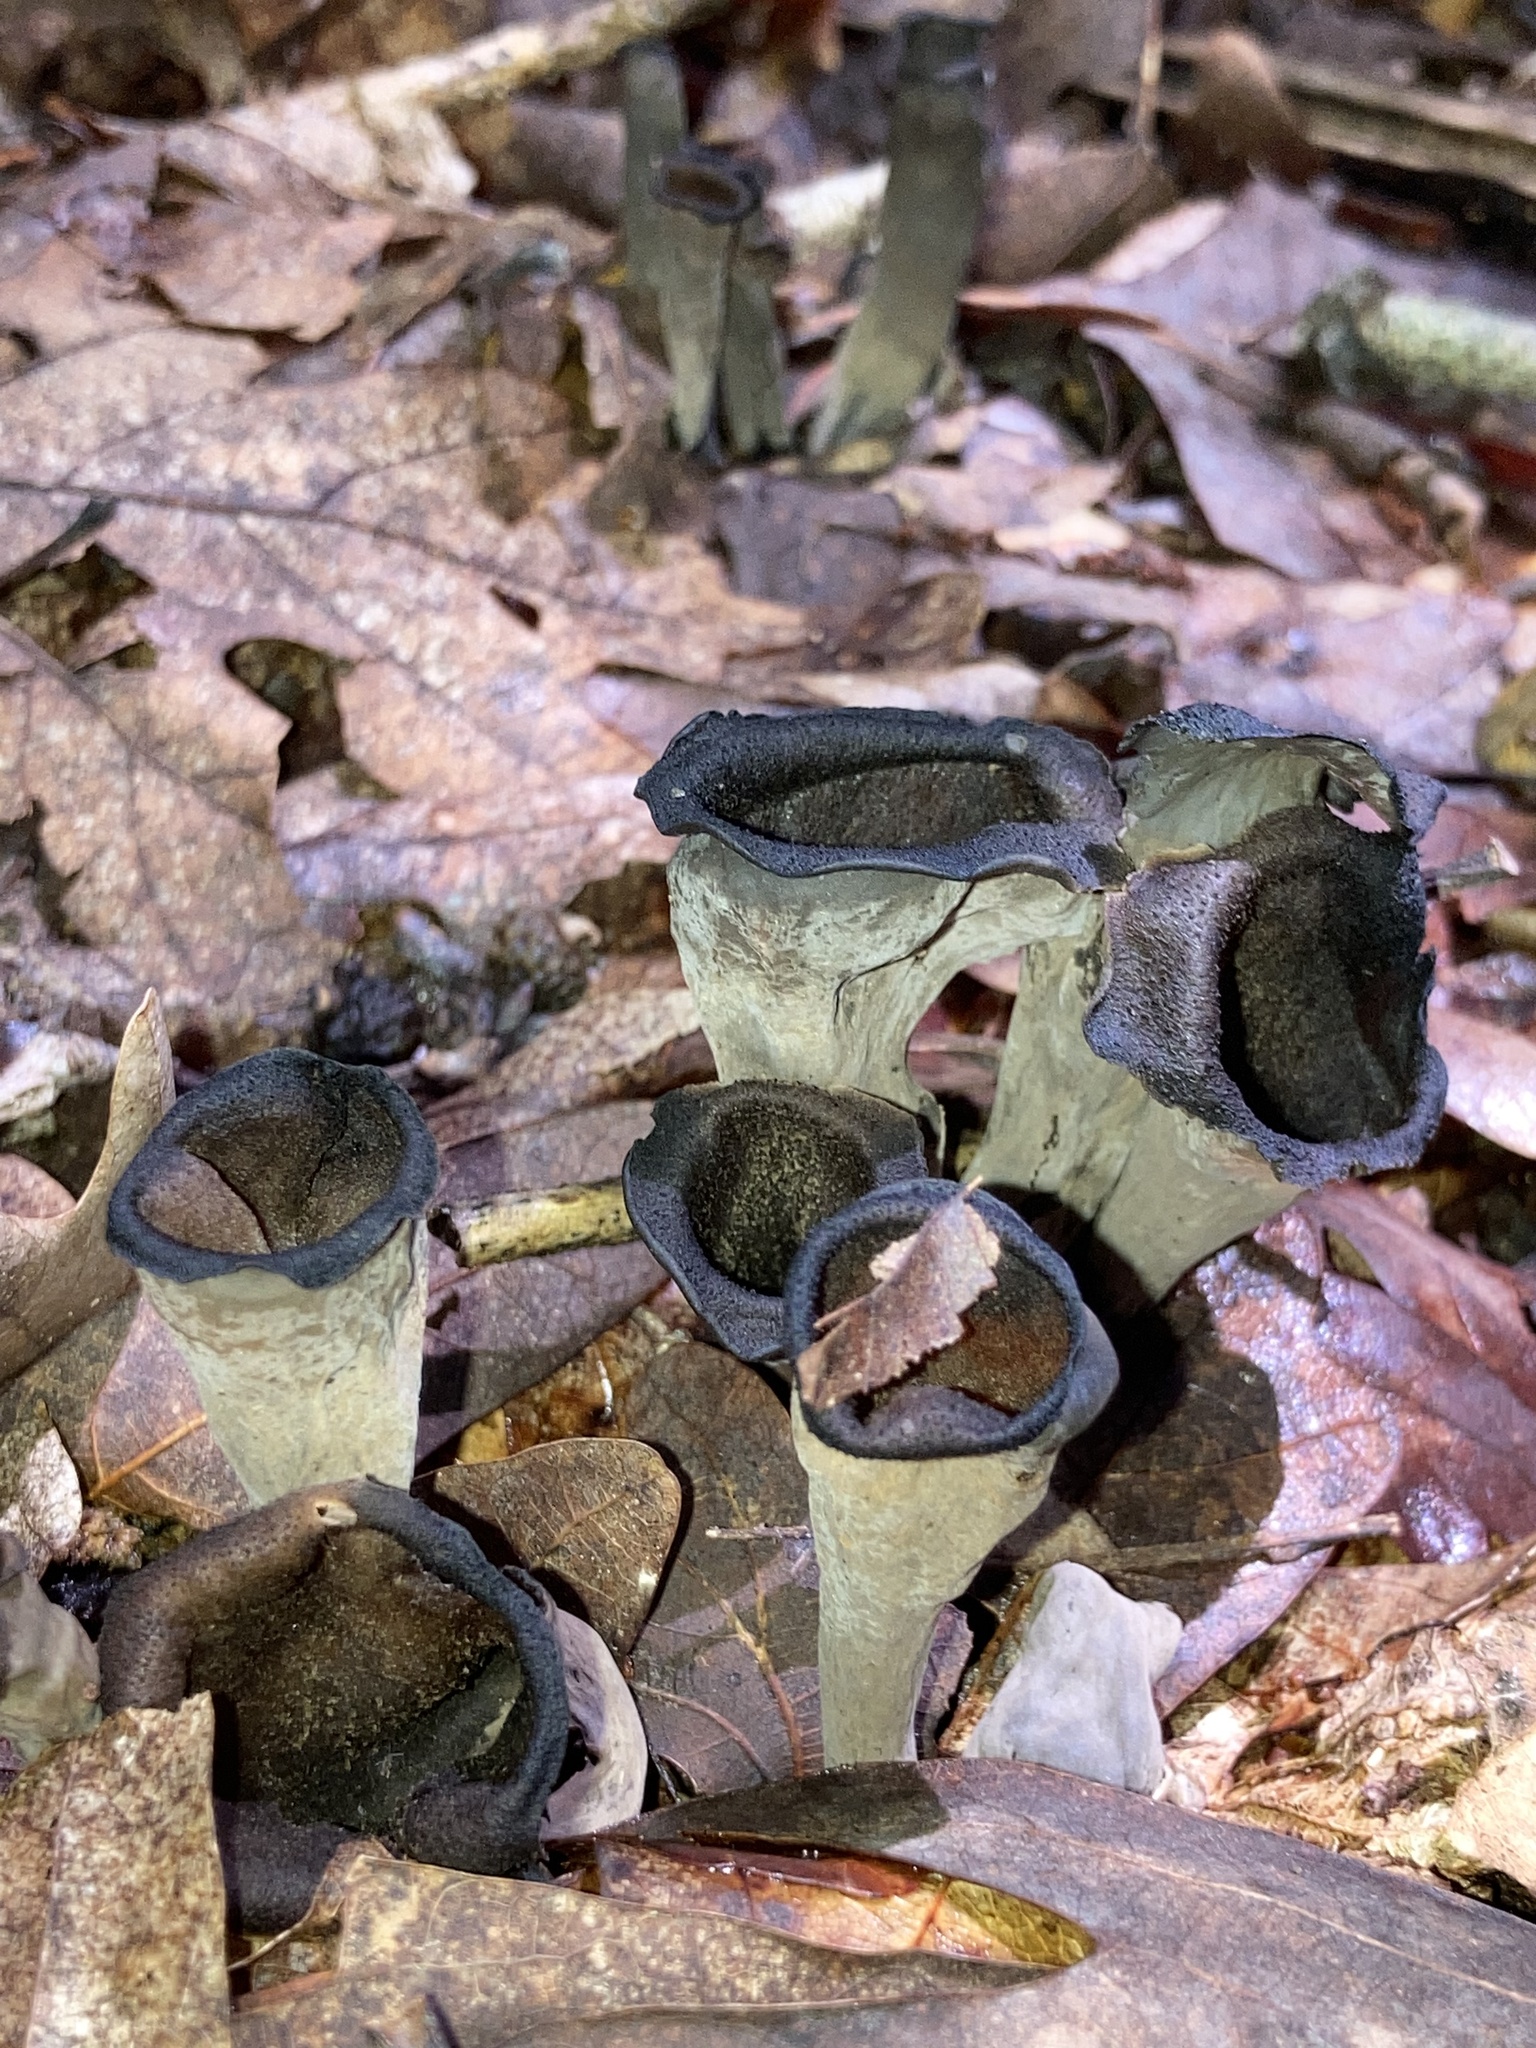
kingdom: Fungi
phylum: Basidiomycota
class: Agaricomycetes
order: Cantharellales
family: Hydnaceae
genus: Craterellus
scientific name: Craterellus cornucopioides
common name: Horn of plenty
